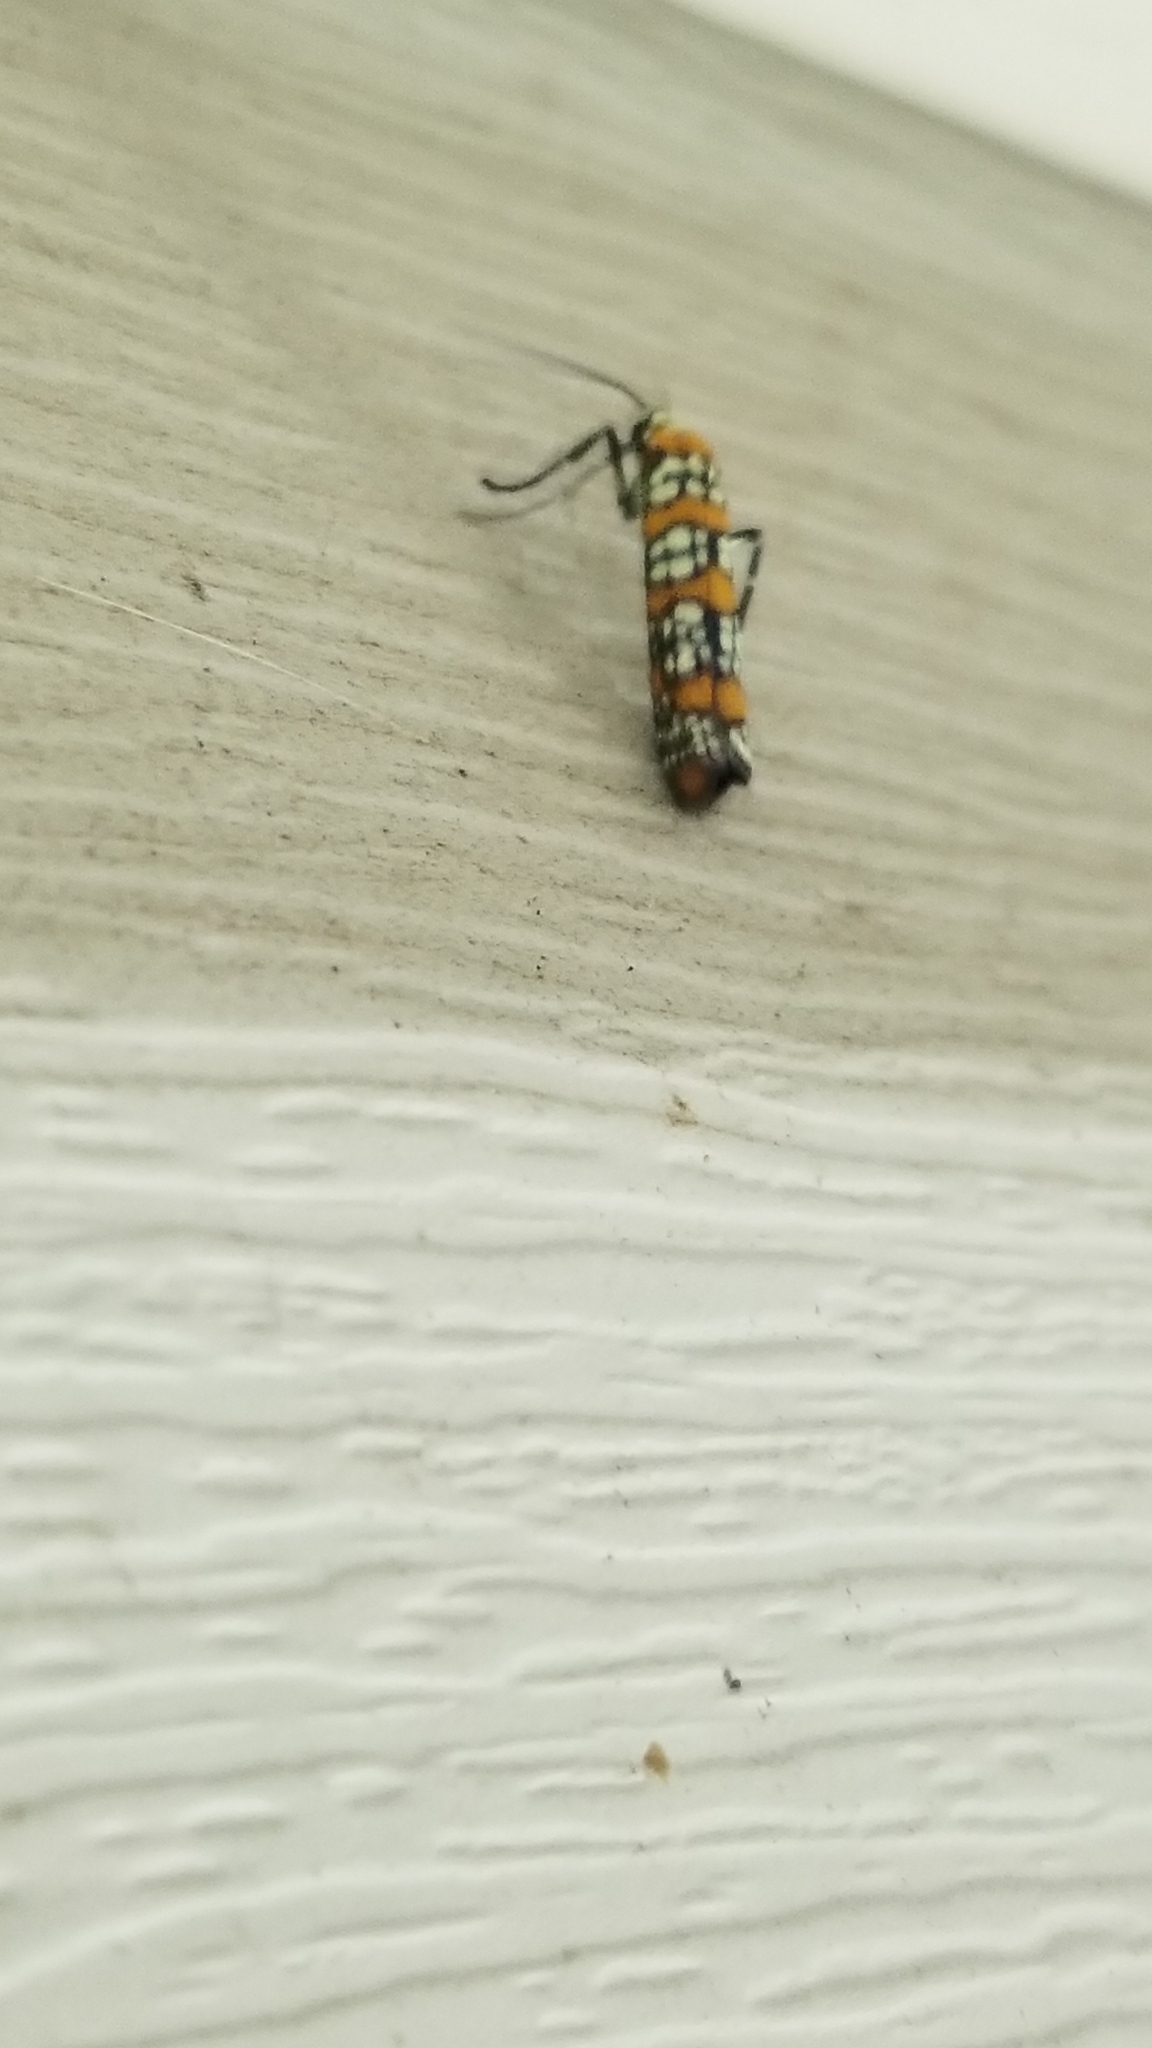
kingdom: Animalia
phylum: Arthropoda
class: Insecta
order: Lepidoptera
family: Attevidae
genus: Atteva
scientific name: Atteva punctella
